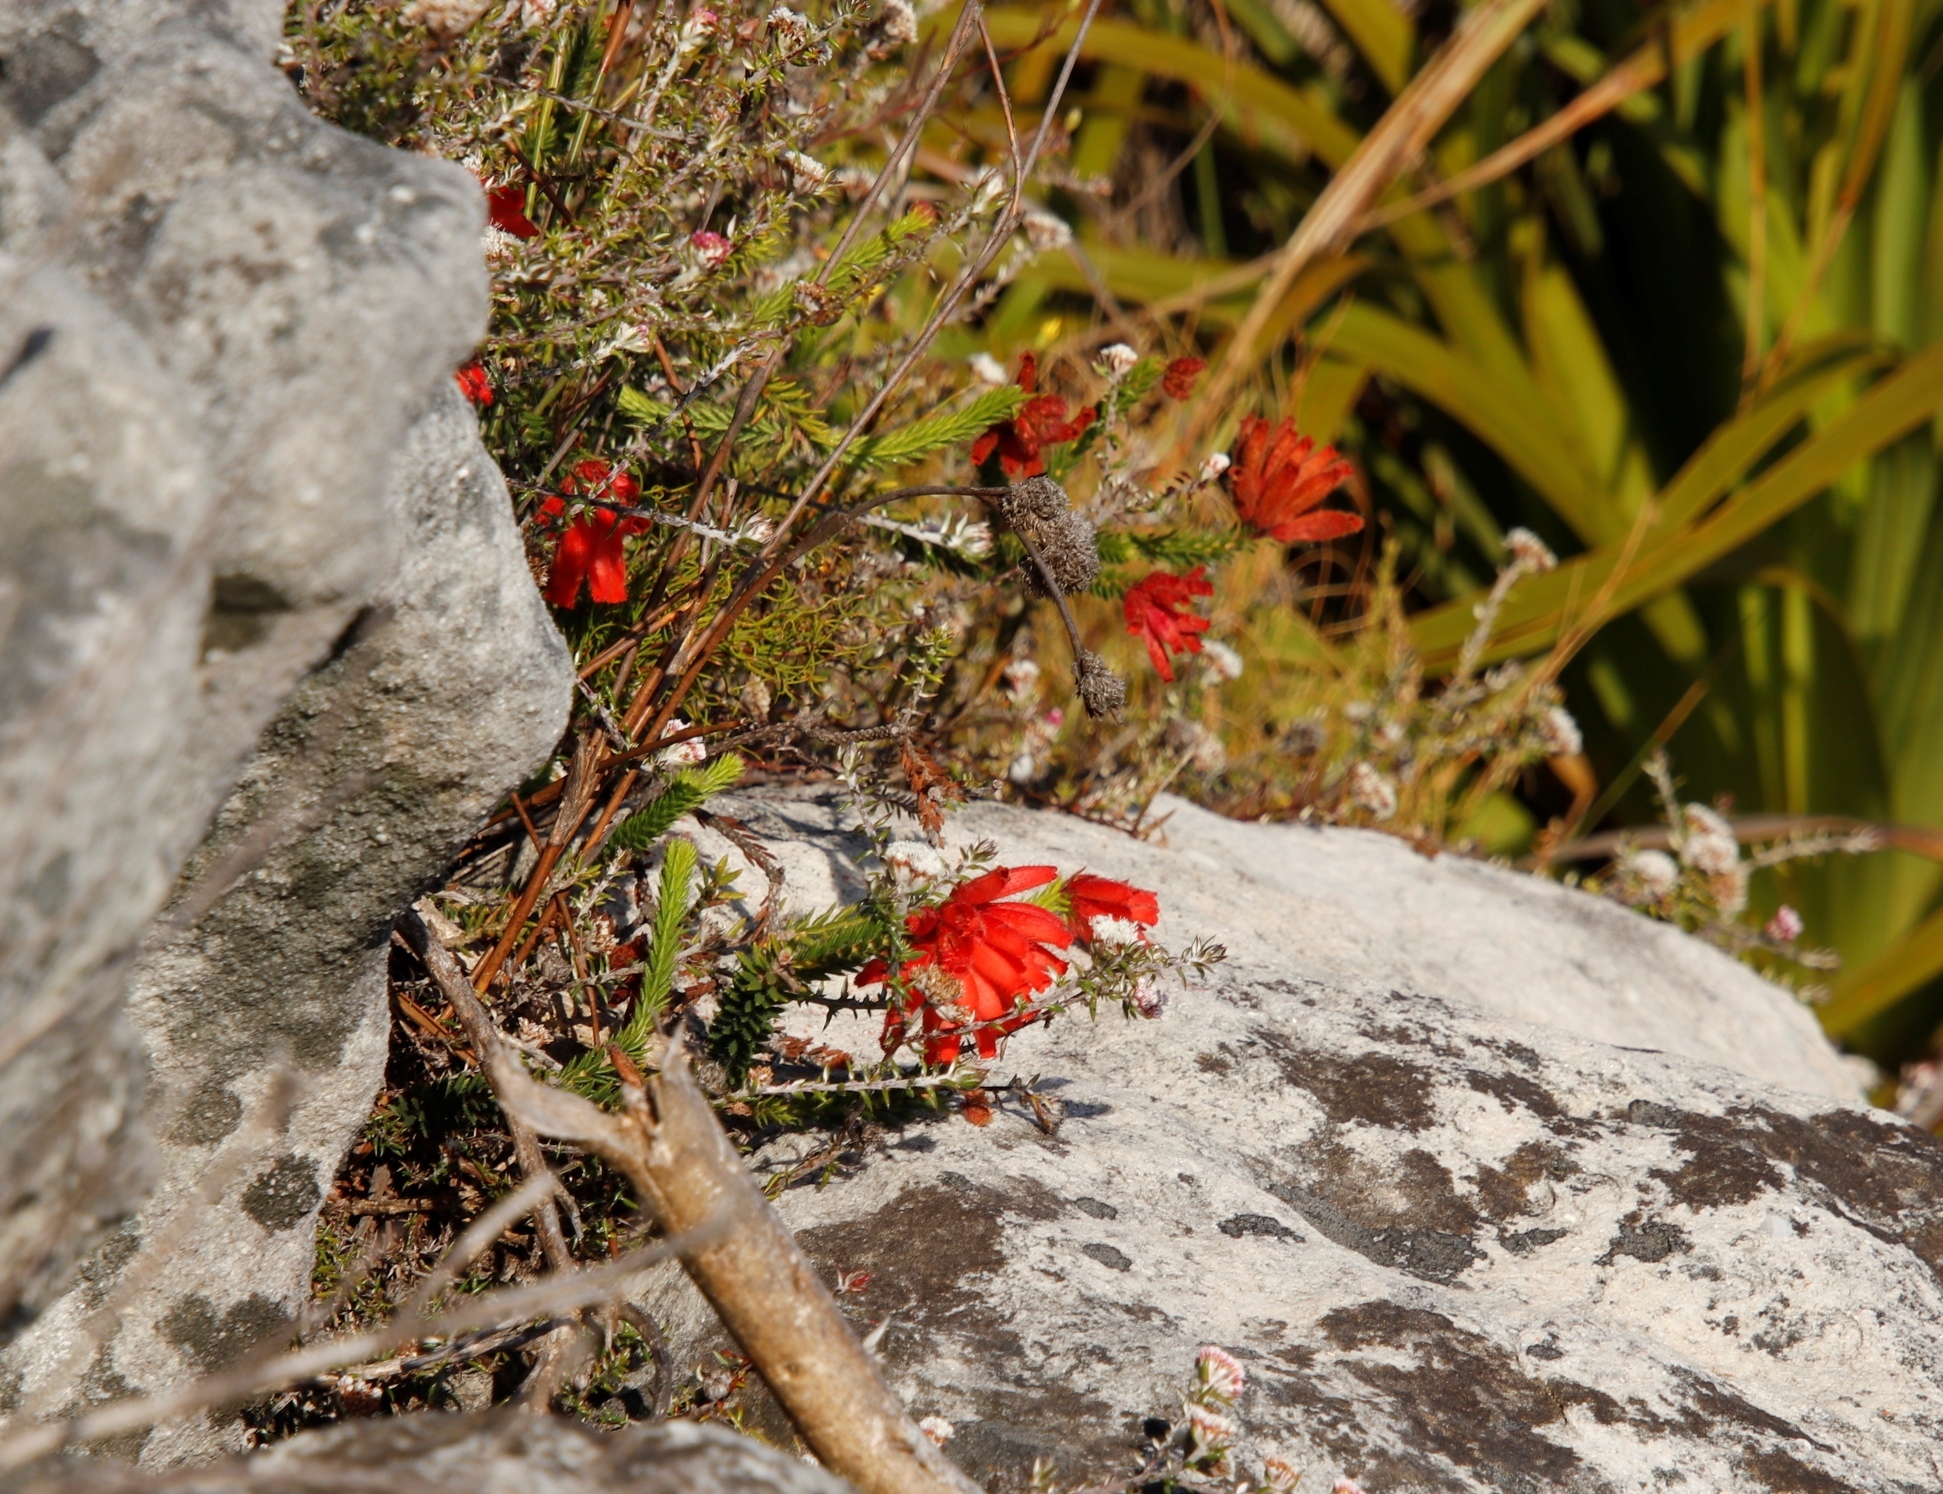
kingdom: Plantae
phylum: Tracheophyta
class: Magnoliopsida
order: Ericales
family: Ericaceae
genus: Erica
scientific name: Erica cerinthoides
